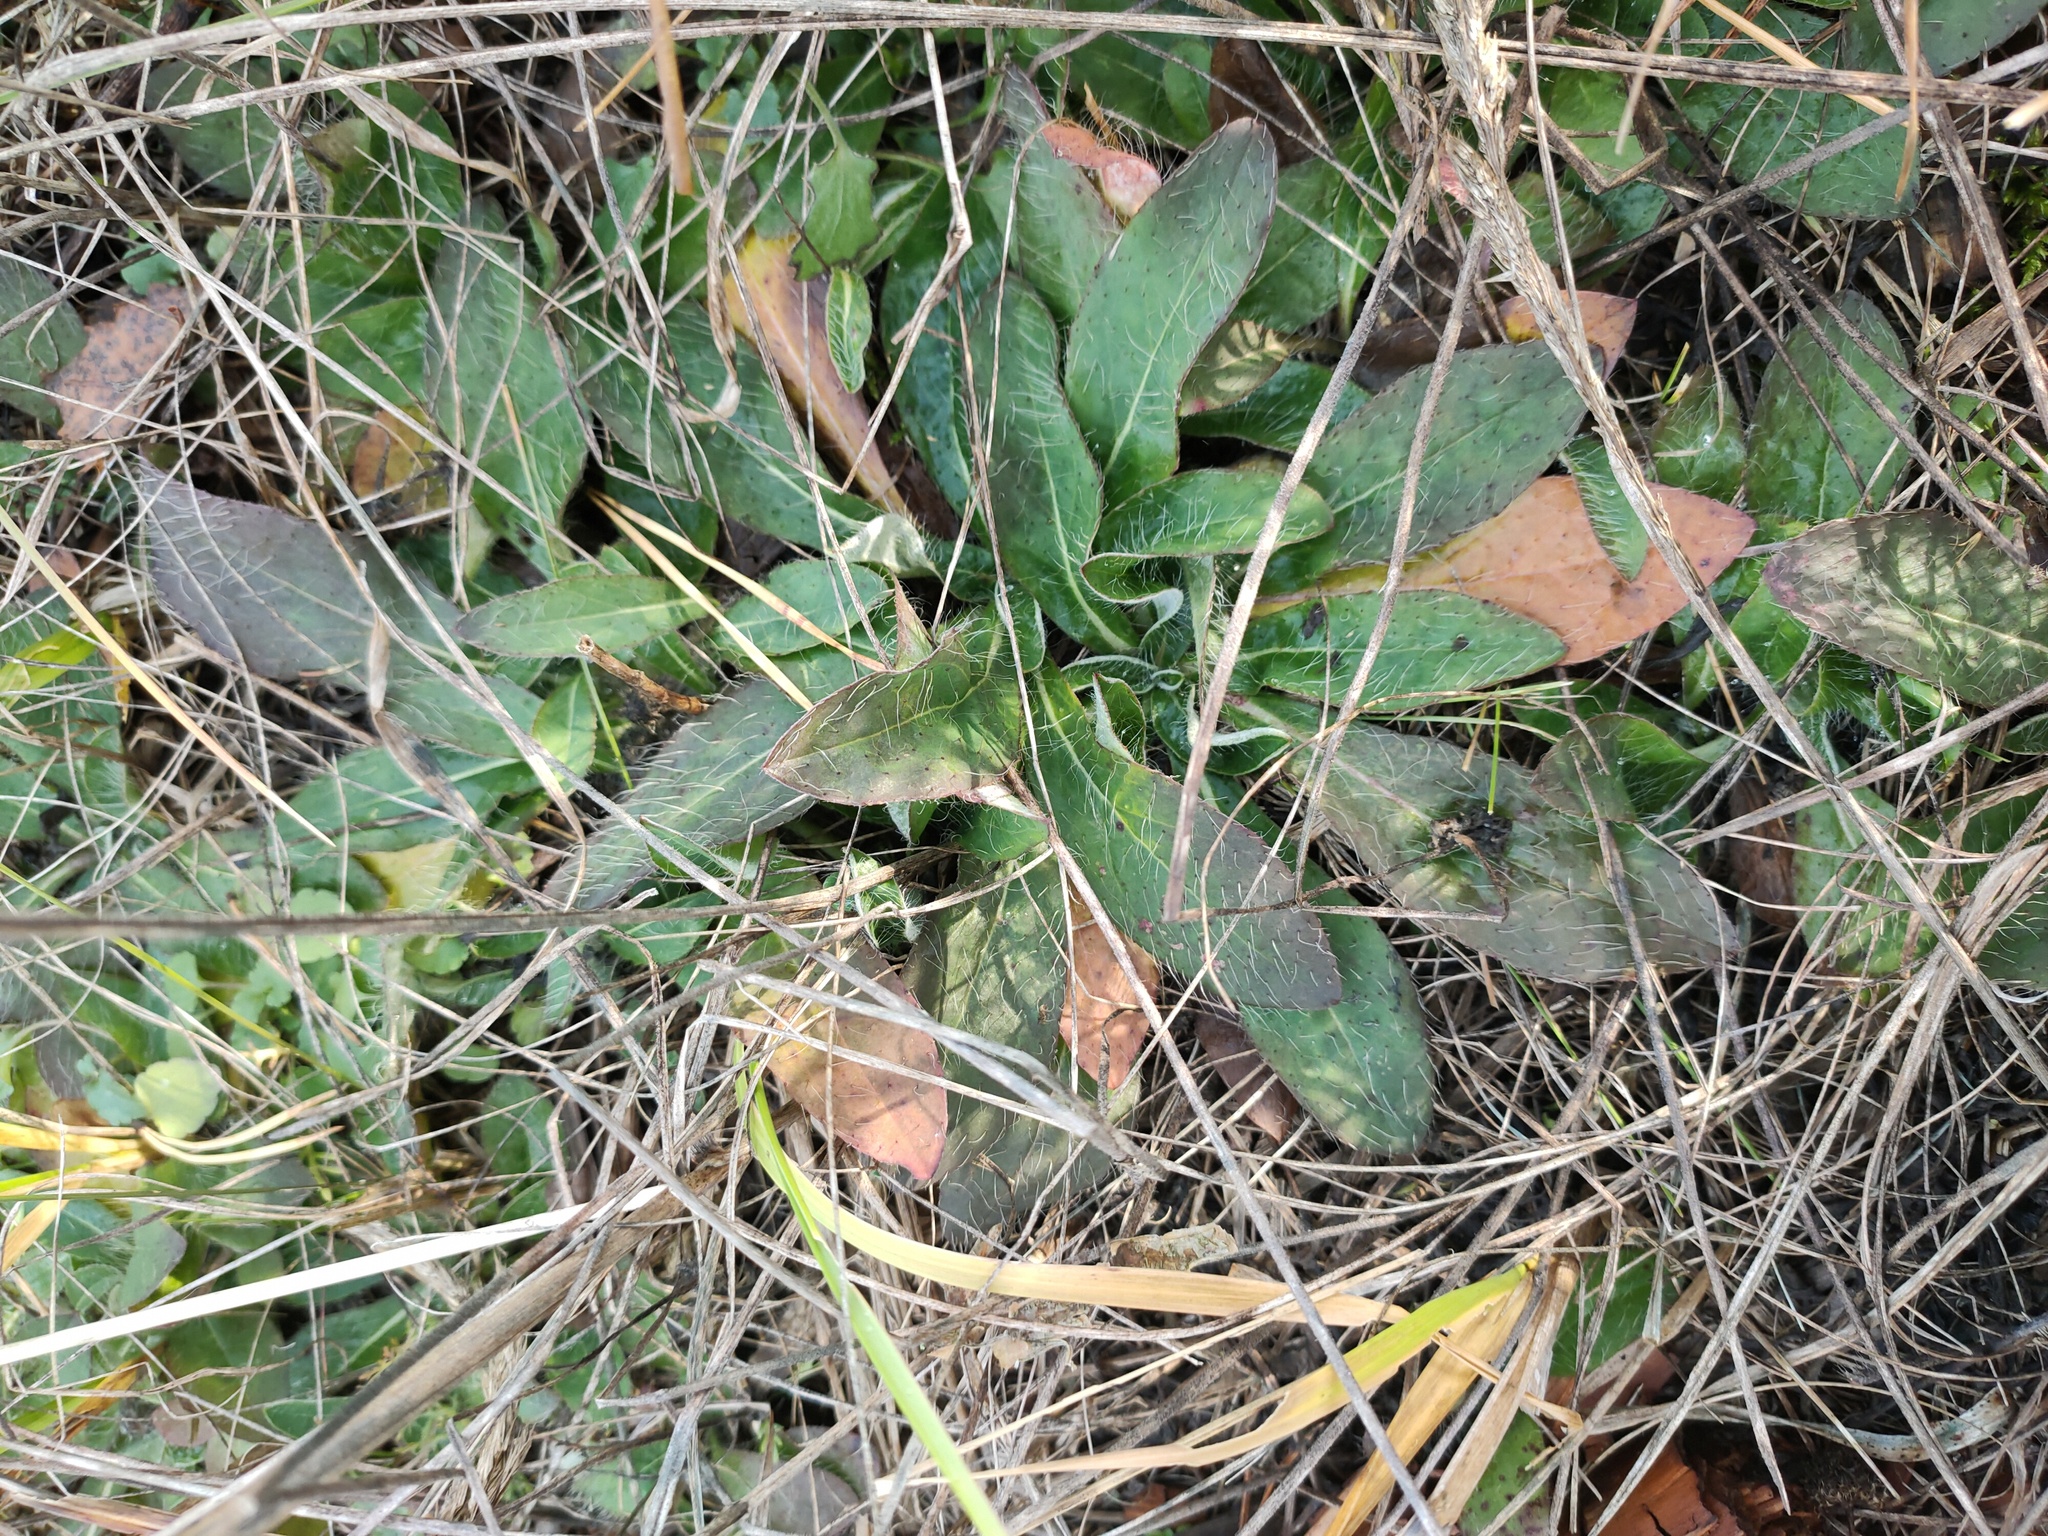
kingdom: Plantae
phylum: Tracheophyta
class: Magnoliopsida
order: Asterales
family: Asteraceae
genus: Pilosella
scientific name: Pilosella officinarum
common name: Mouse-ear hawkweed
